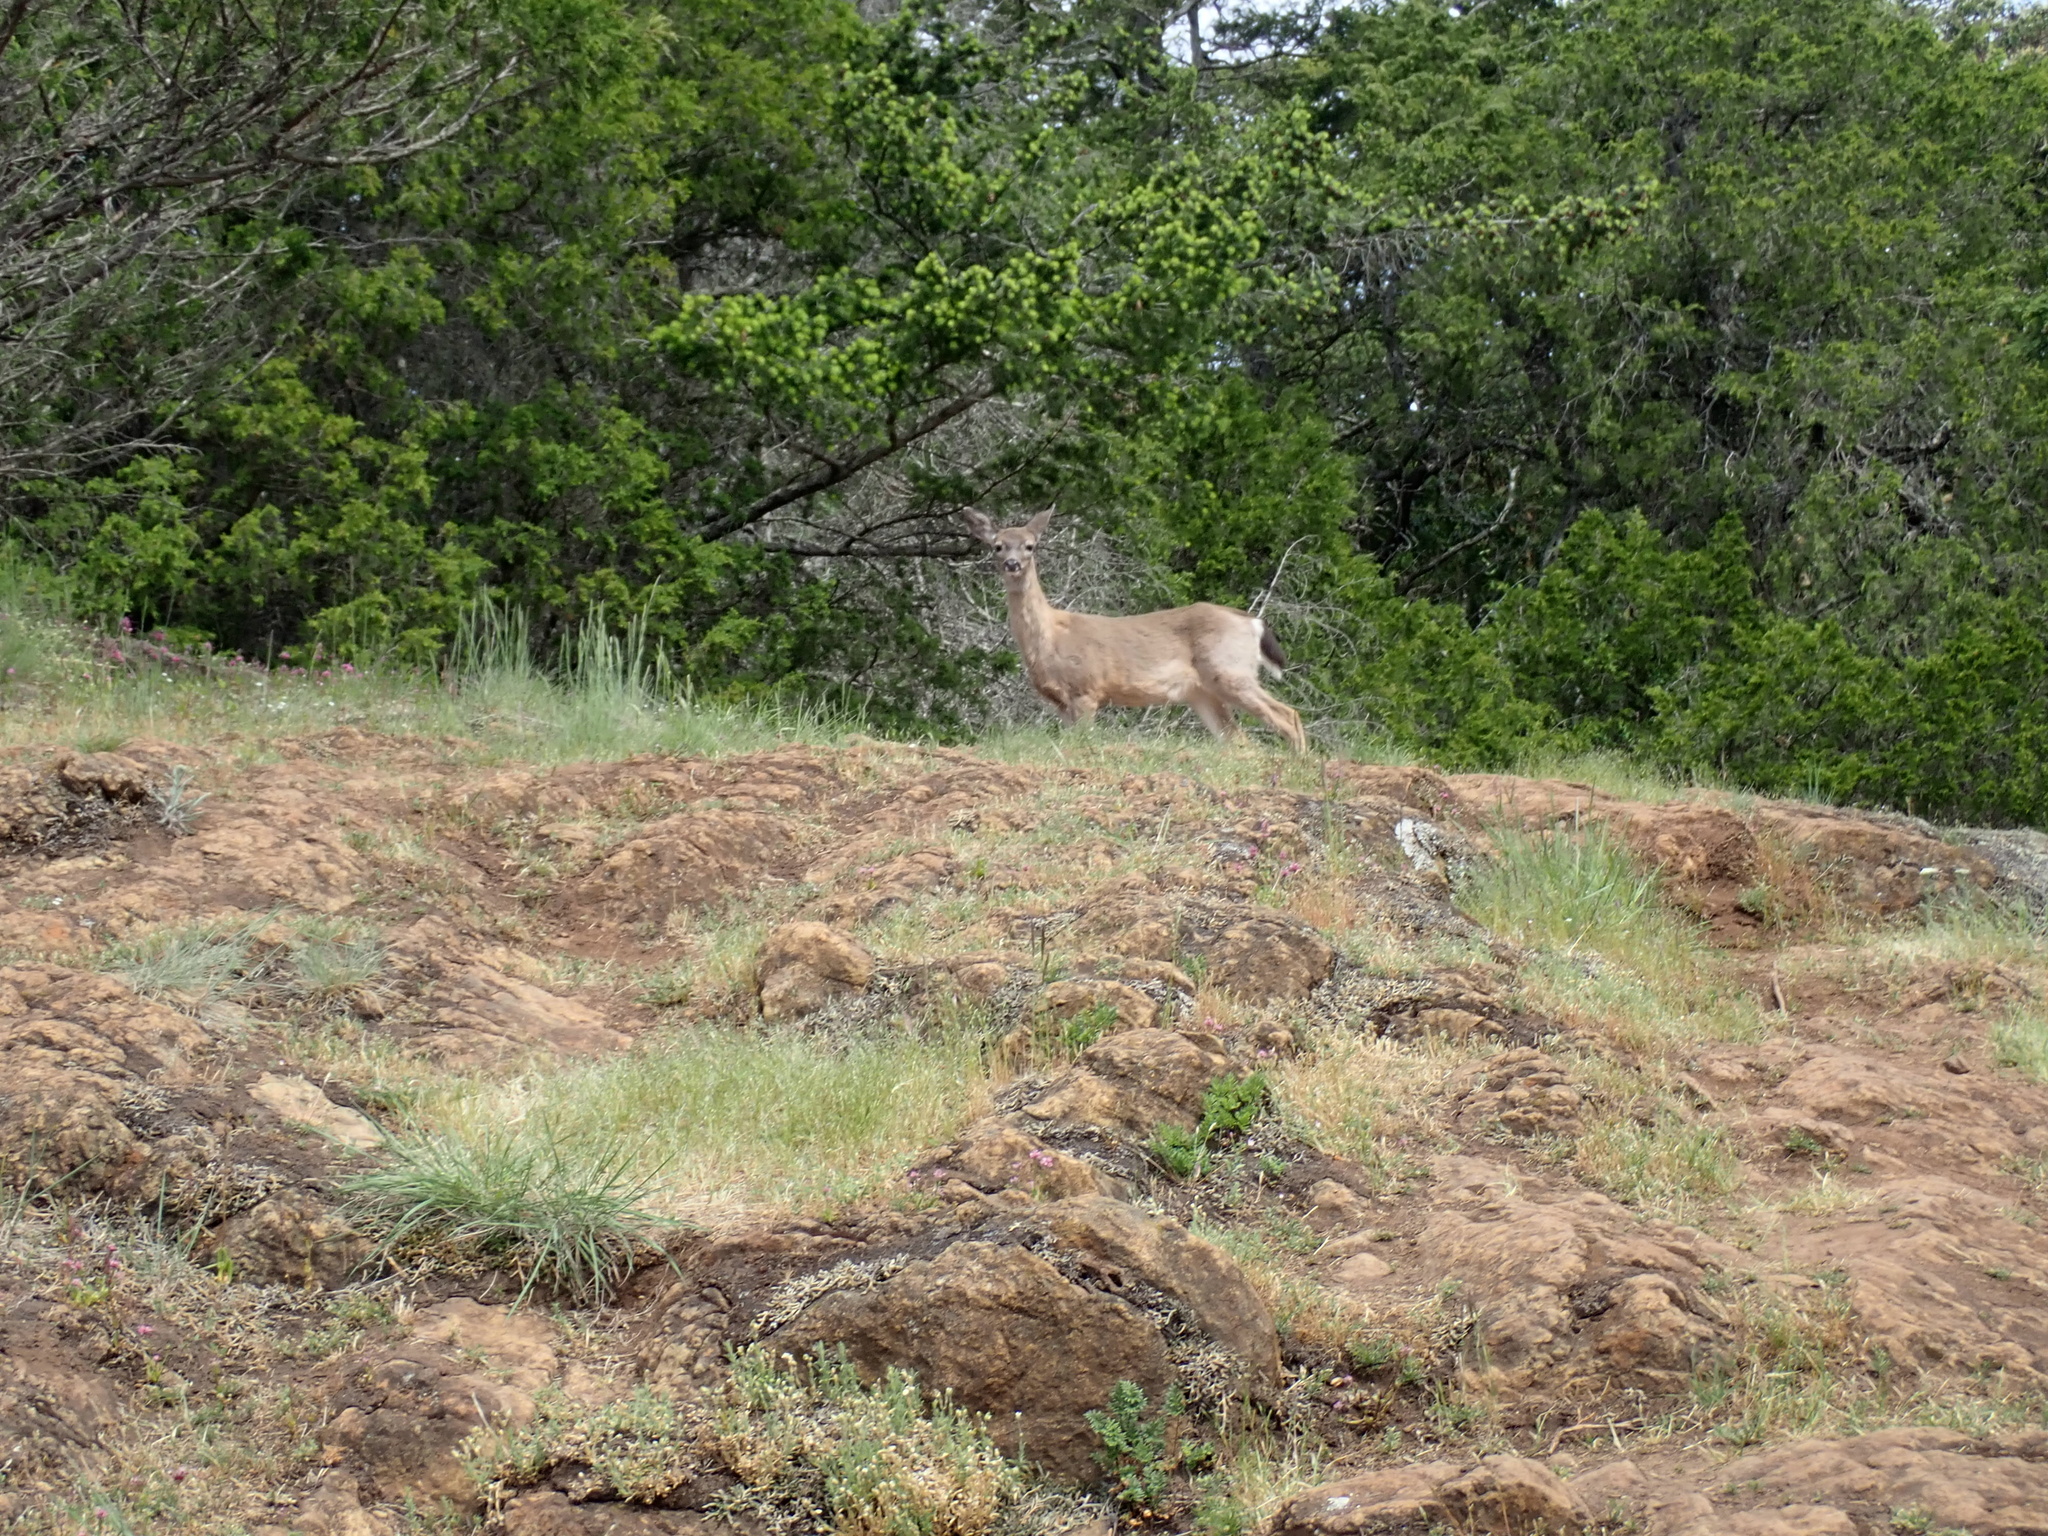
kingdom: Animalia
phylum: Chordata
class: Mammalia
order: Artiodactyla
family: Cervidae
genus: Odocoileus
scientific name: Odocoileus hemionus
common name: Mule deer
